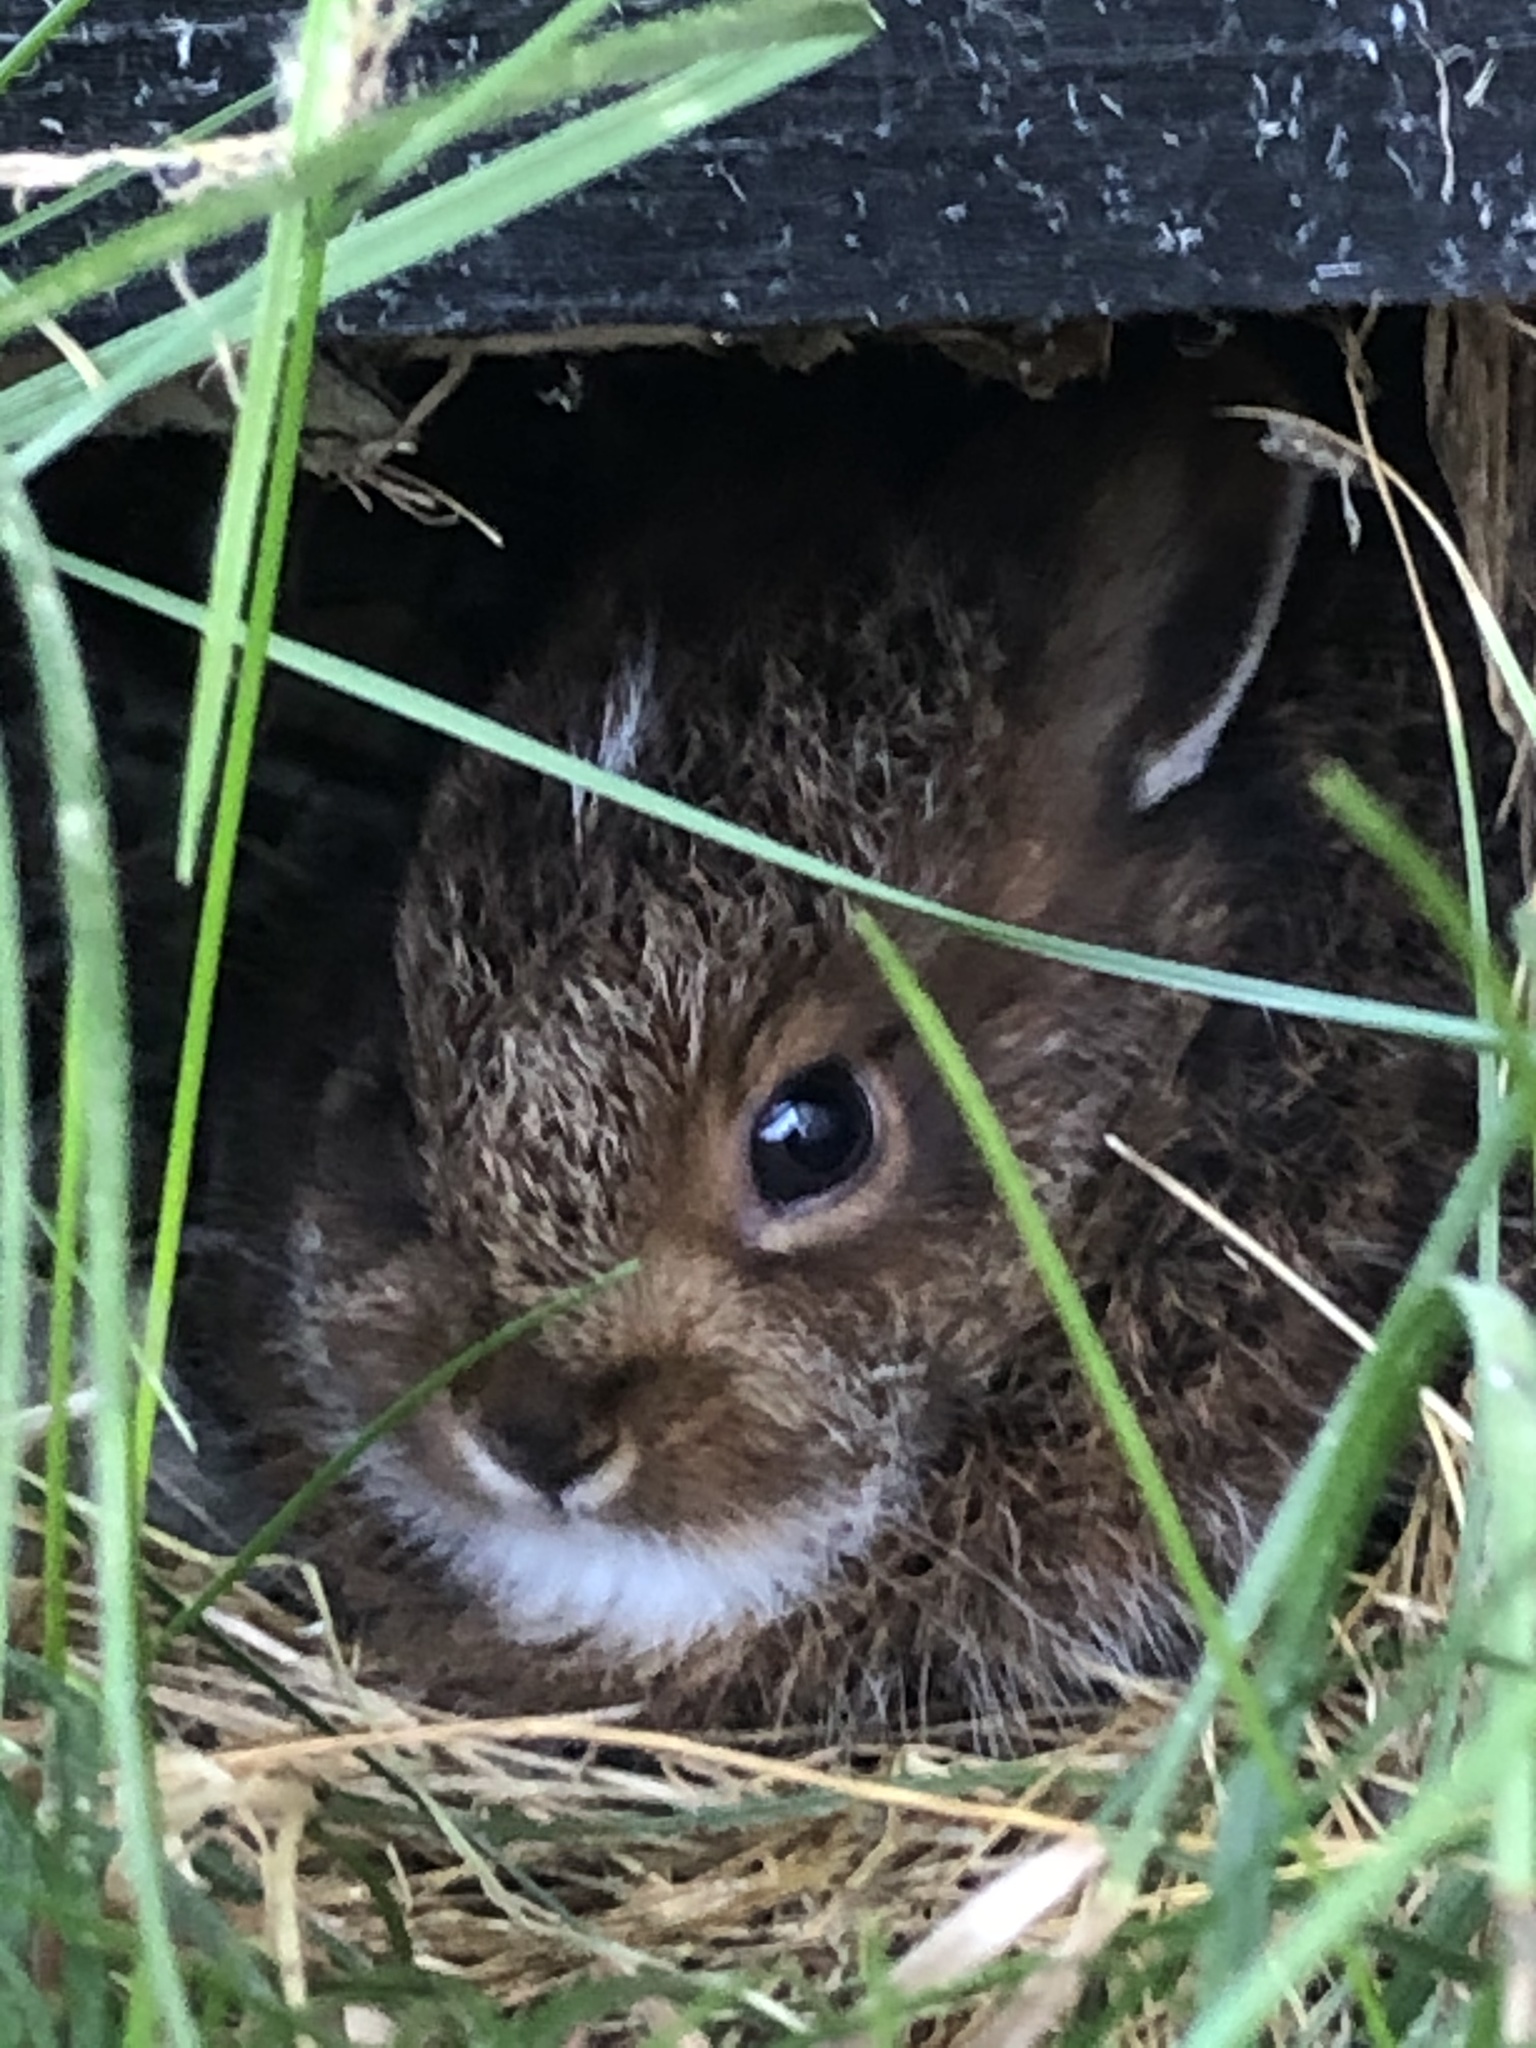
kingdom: Animalia
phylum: Chordata
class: Mammalia
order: Lagomorpha
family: Leporidae
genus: Lepus
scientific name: Lepus americanus
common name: Snowshoe hare
